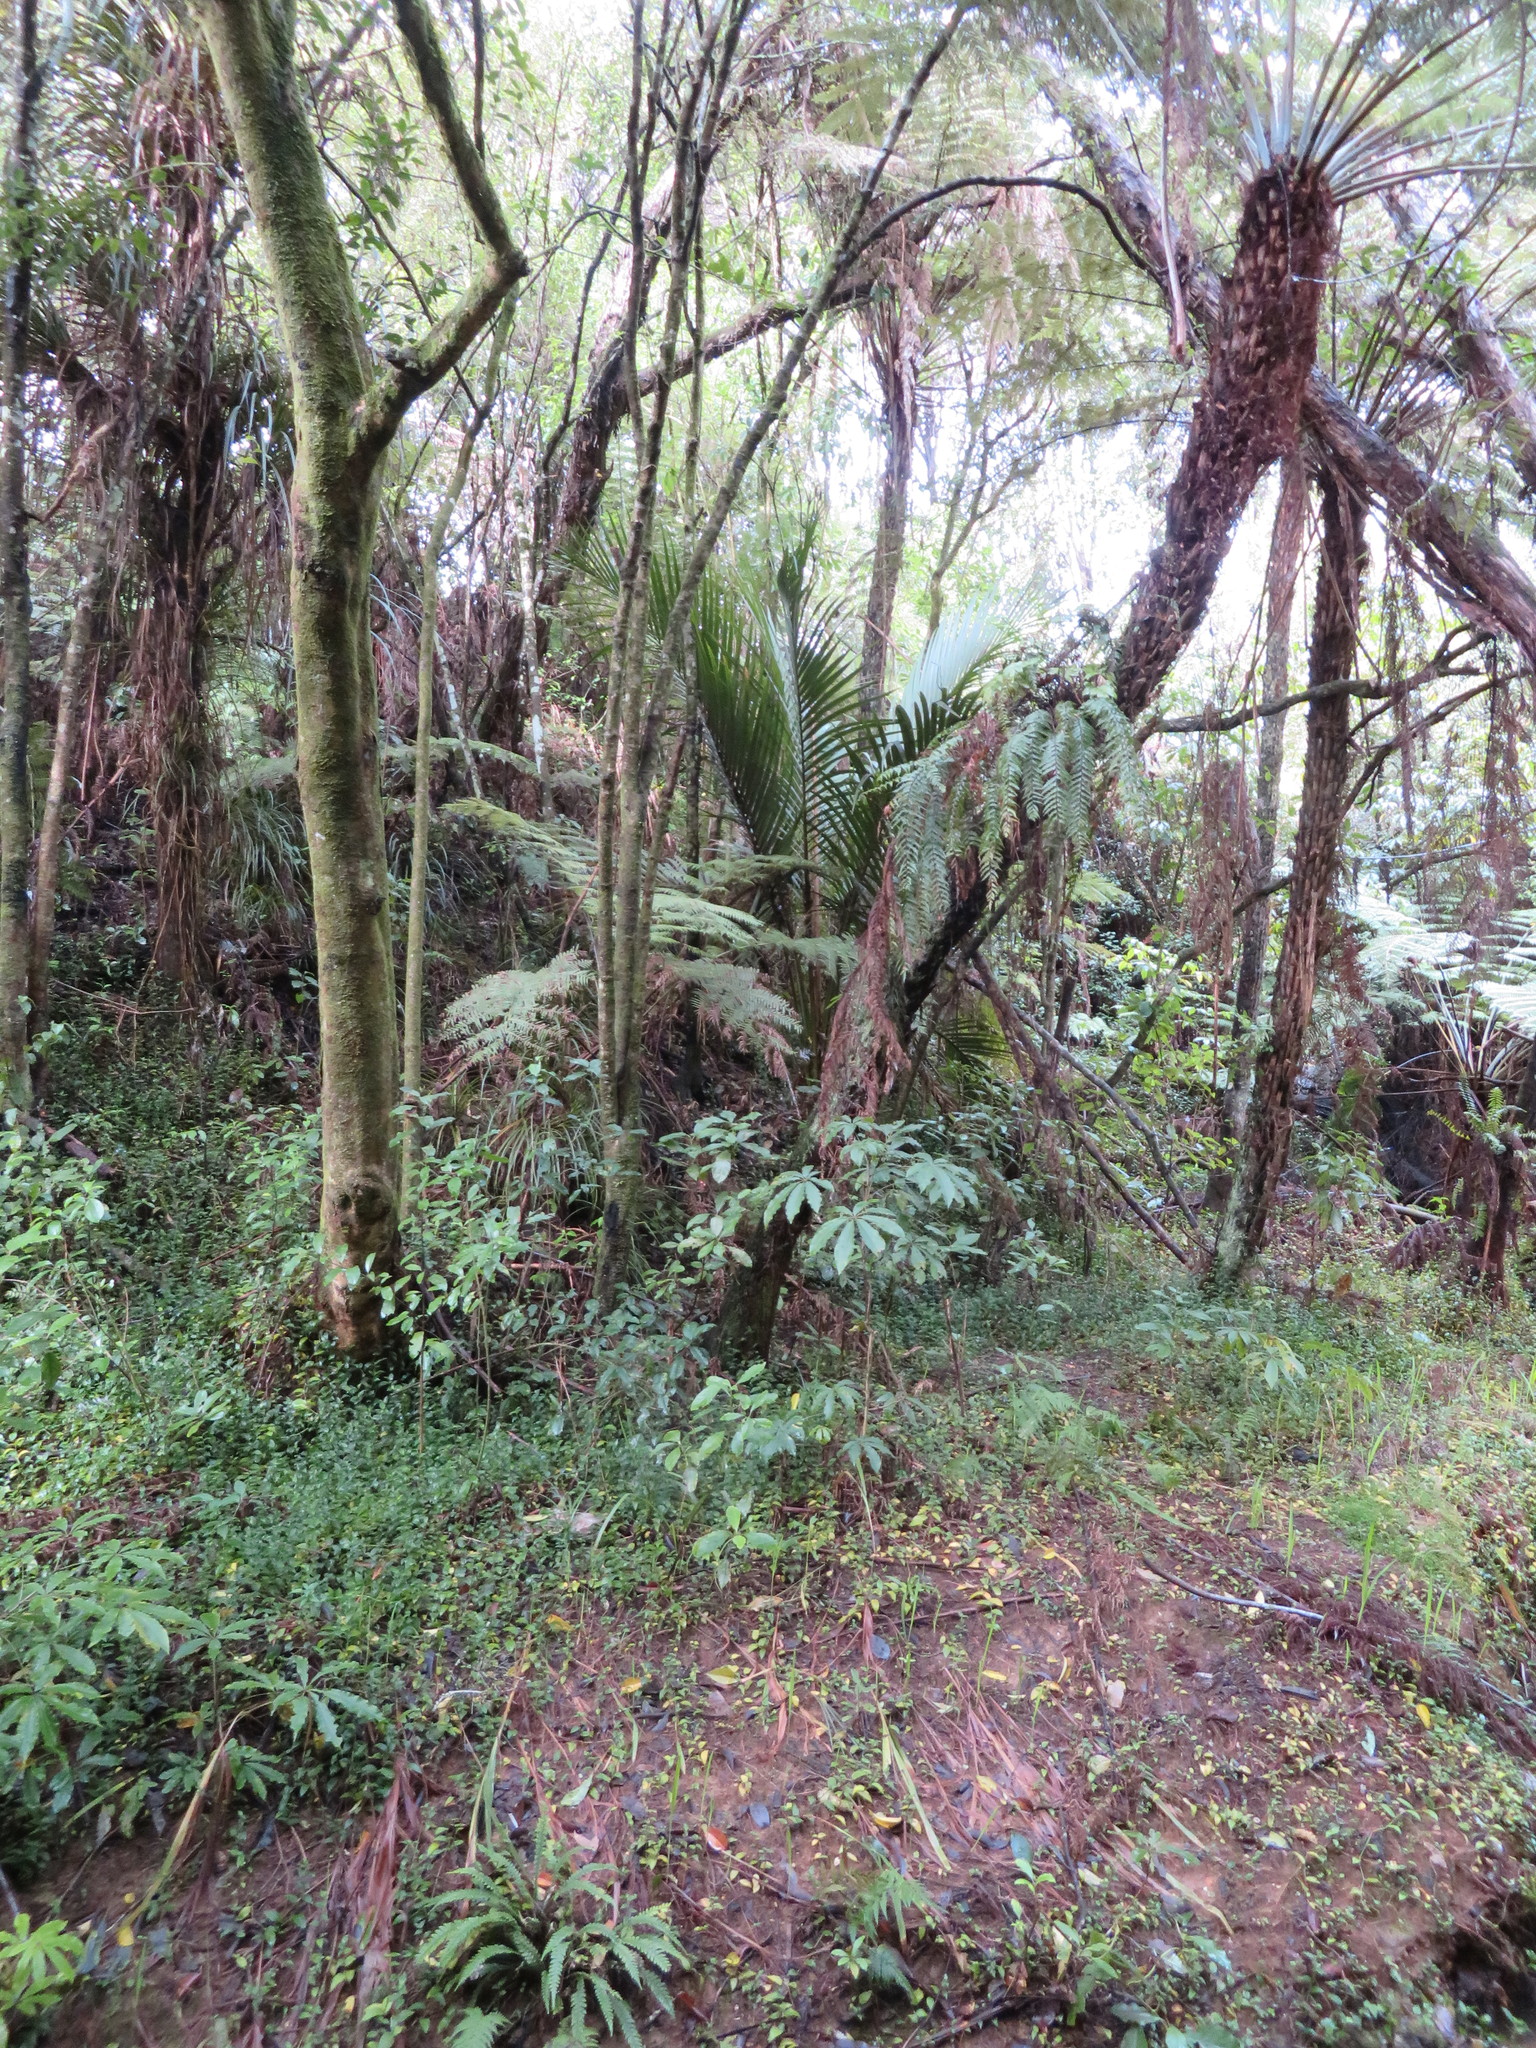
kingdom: Plantae
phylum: Tracheophyta
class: Liliopsida
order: Commelinales
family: Commelinaceae
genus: Tradescantia
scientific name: Tradescantia fluminensis
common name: Wandering-jew
